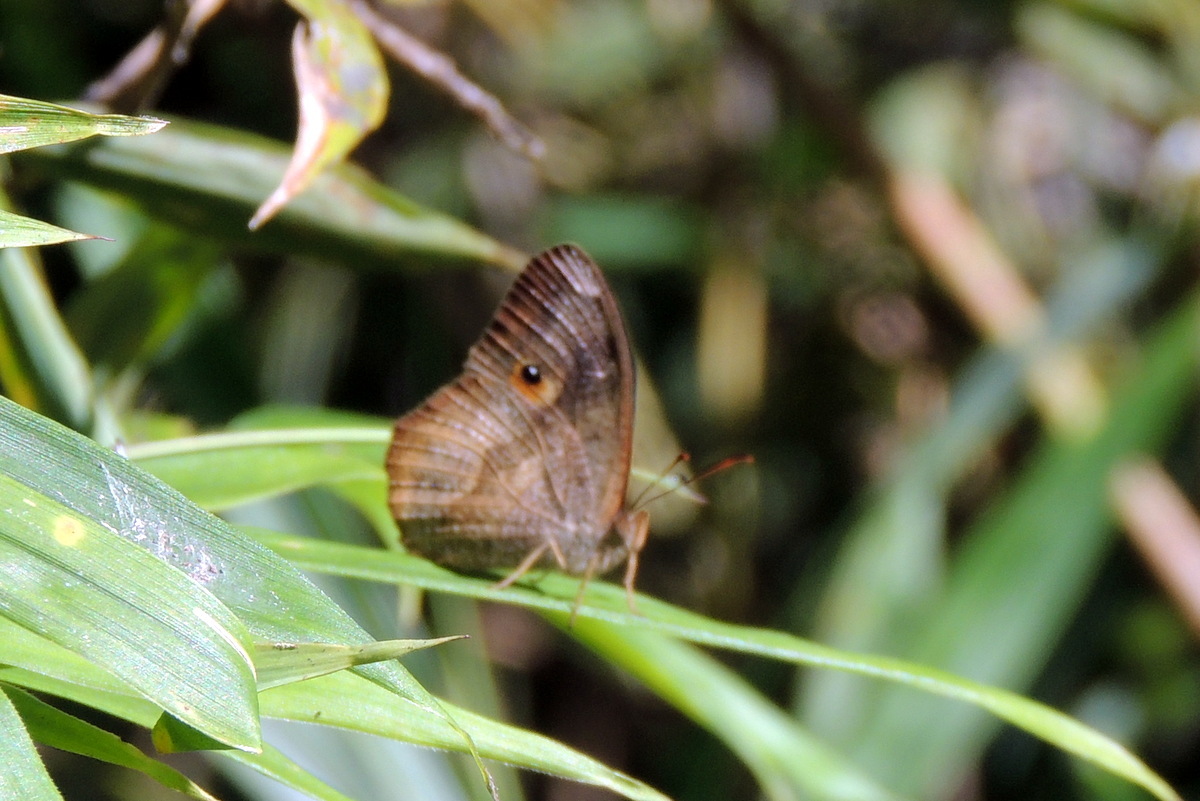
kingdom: Animalia
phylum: Arthropoda
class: Insecta
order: Lepidoptera
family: Nymphalidae
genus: Heteropsis
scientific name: Heteropsis parva
